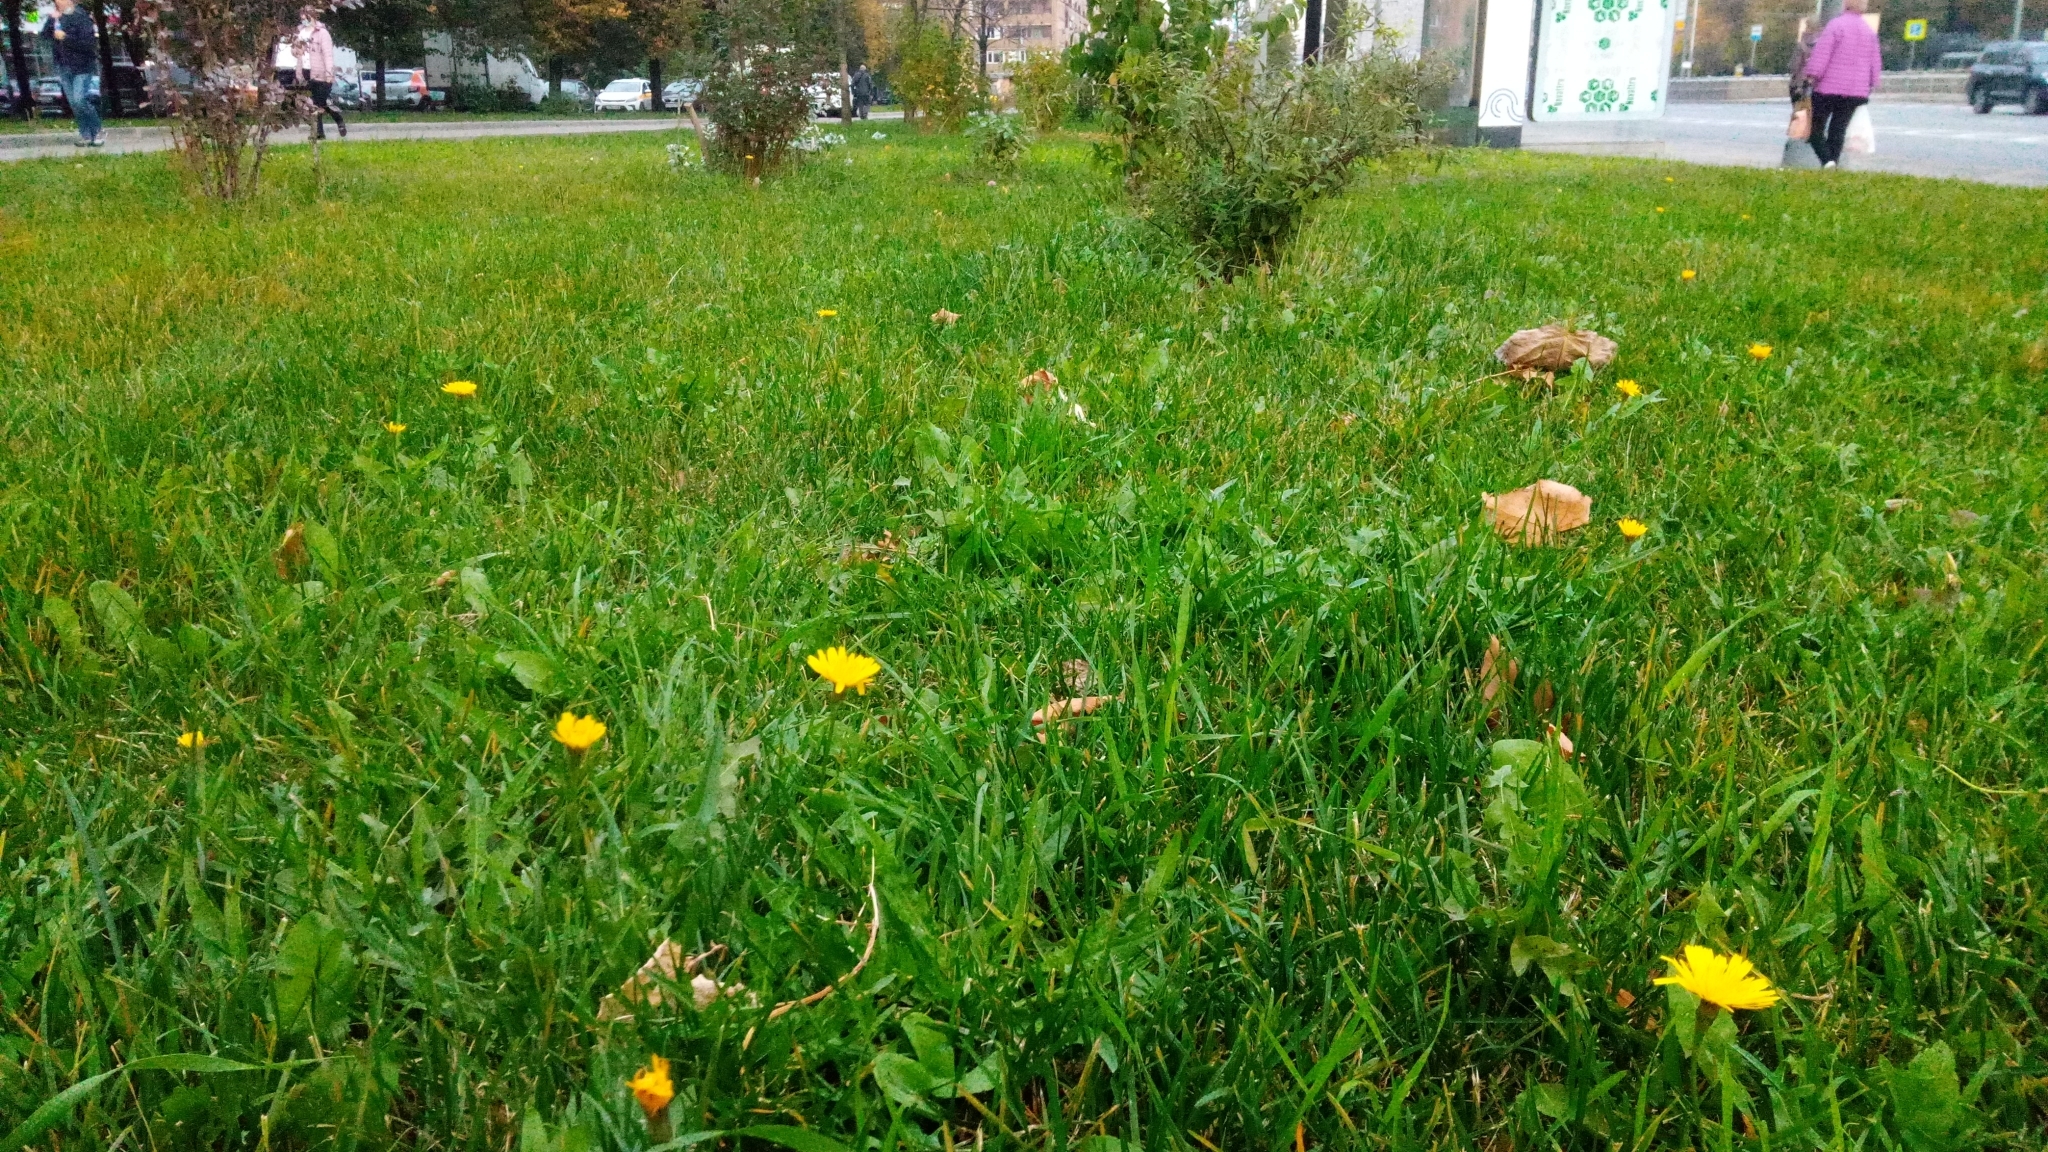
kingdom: Plantae
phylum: Tracheophyta
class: Magnoliopsida
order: Asterales
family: Asteraceae
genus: Scorzoneroides
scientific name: Scorzoneroides autumnalis
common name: Autumn hawkbit
